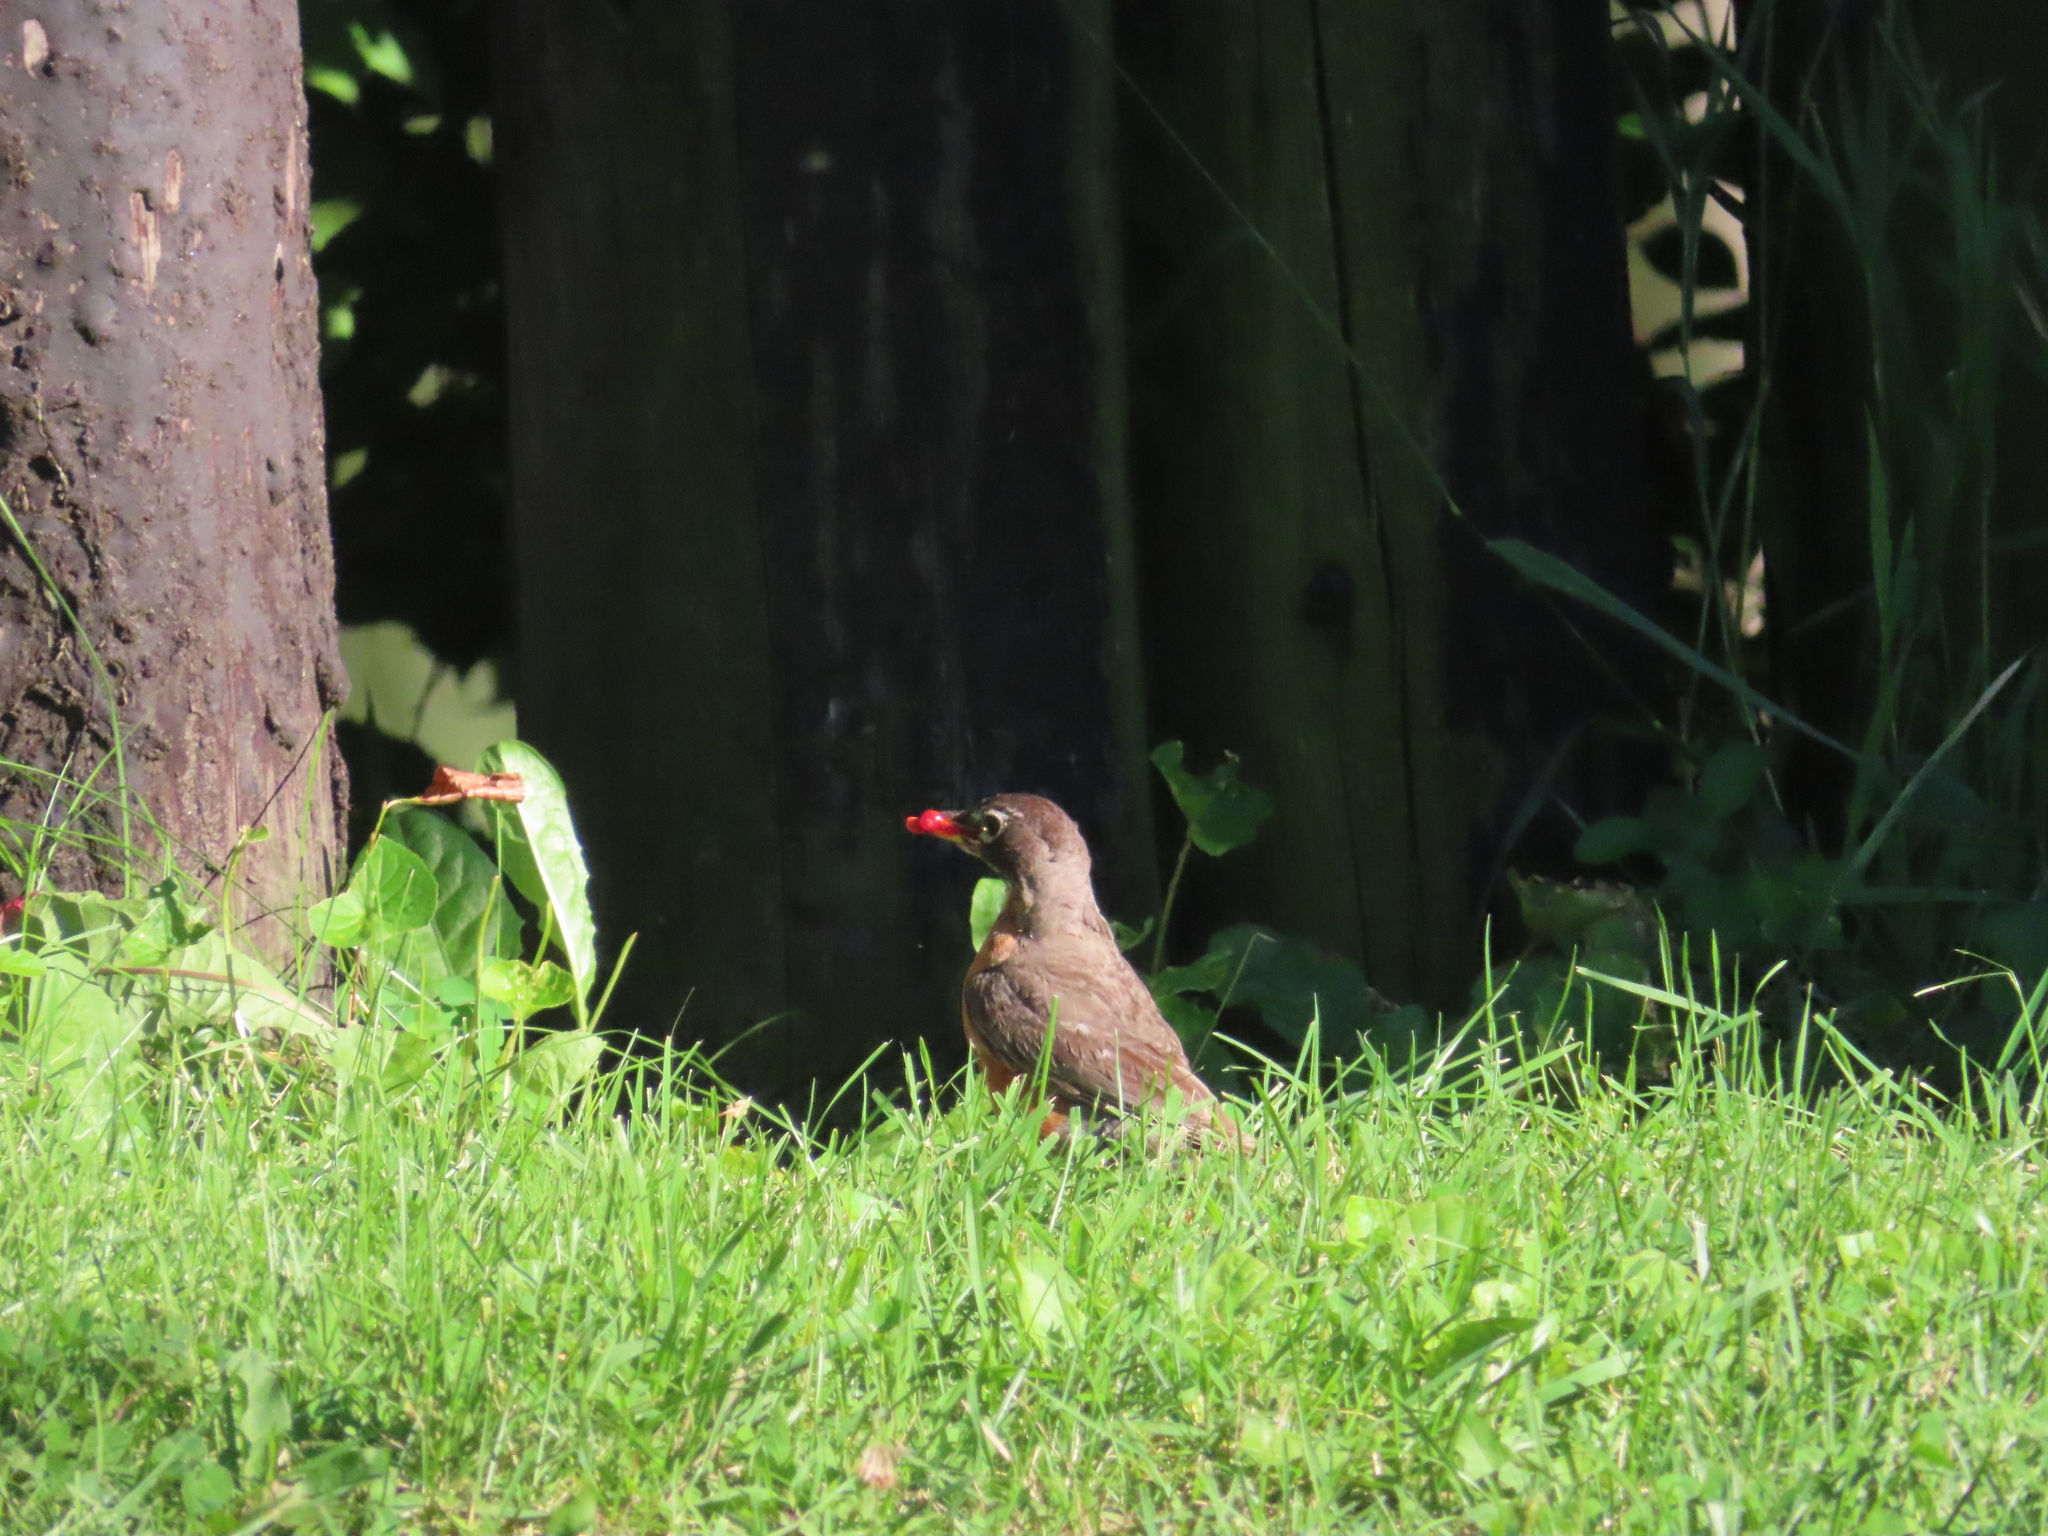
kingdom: Animalia
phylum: Chordata
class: Aves
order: Passeriformes
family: Turdidae
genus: Turdus
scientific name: Turdus migratorius
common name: American robin
